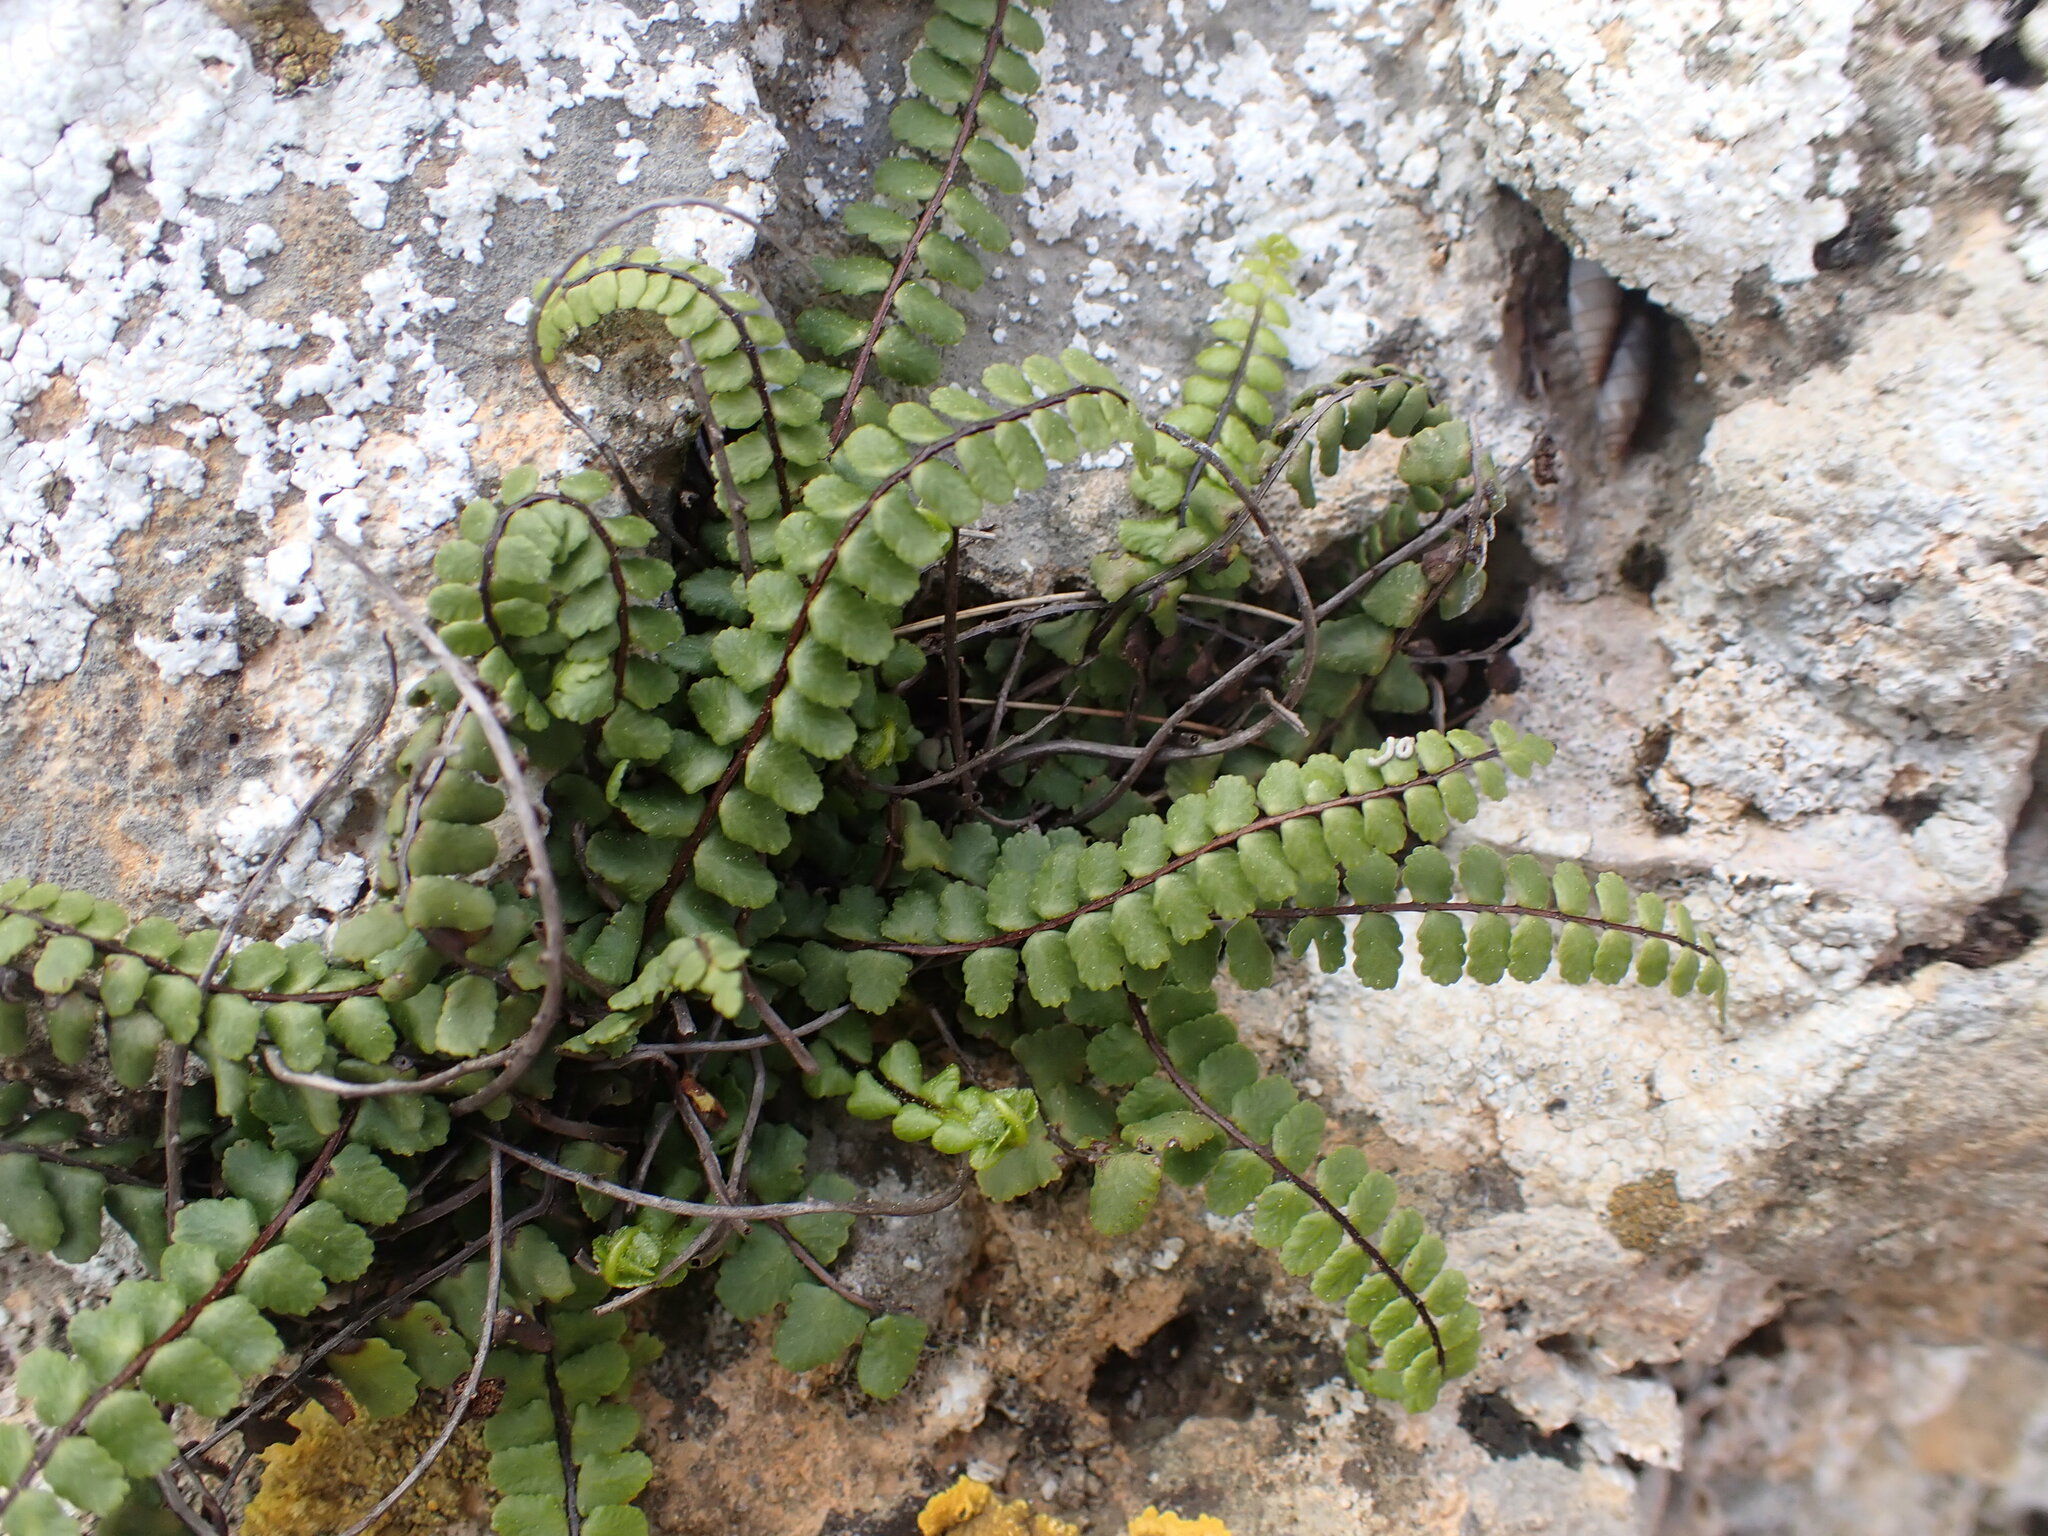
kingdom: Plantae
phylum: Tracheophyta
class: Polypodiopsida
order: Polypodiales
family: Aspleniaceae
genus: Asplenium
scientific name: Asplenium trichomanes
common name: Maidenhair spleenwort
